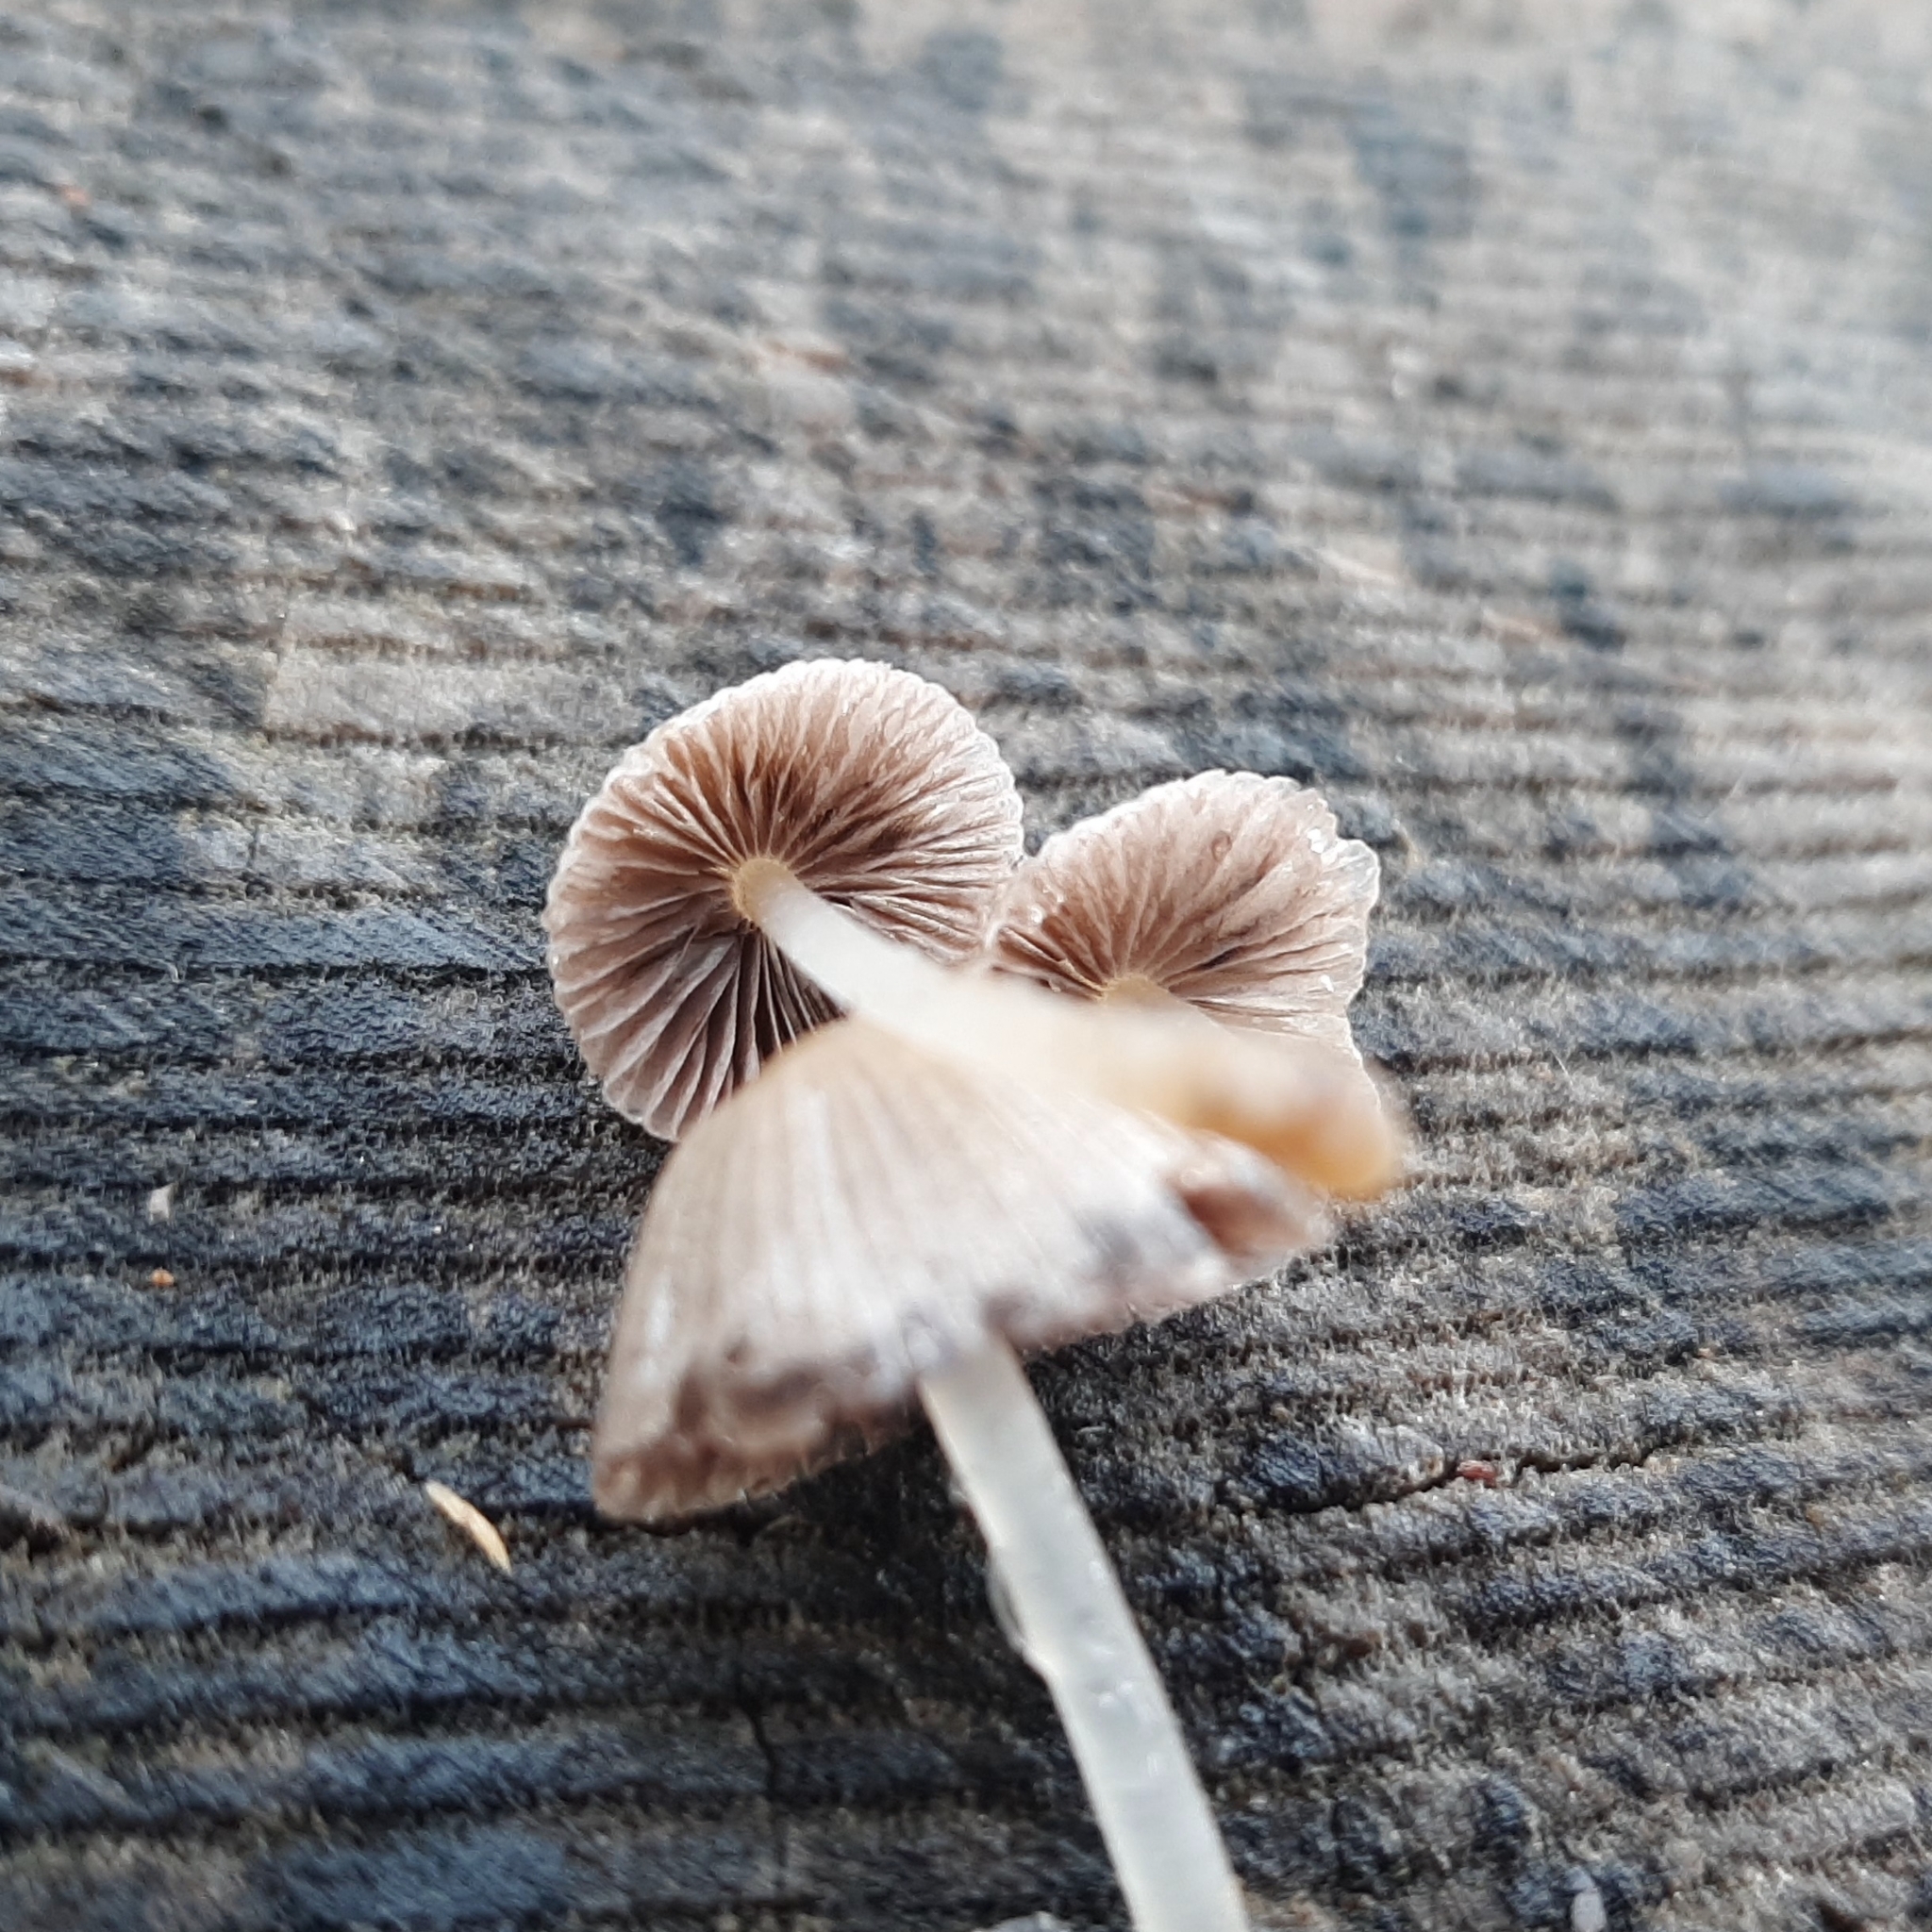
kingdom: Fungi
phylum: Basidiomycota
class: Agaricomycetes
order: Agaricales
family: Psathyrellaceae
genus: Coprinellus
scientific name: Coprinellus disseminatus
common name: Fairies' bonnets
